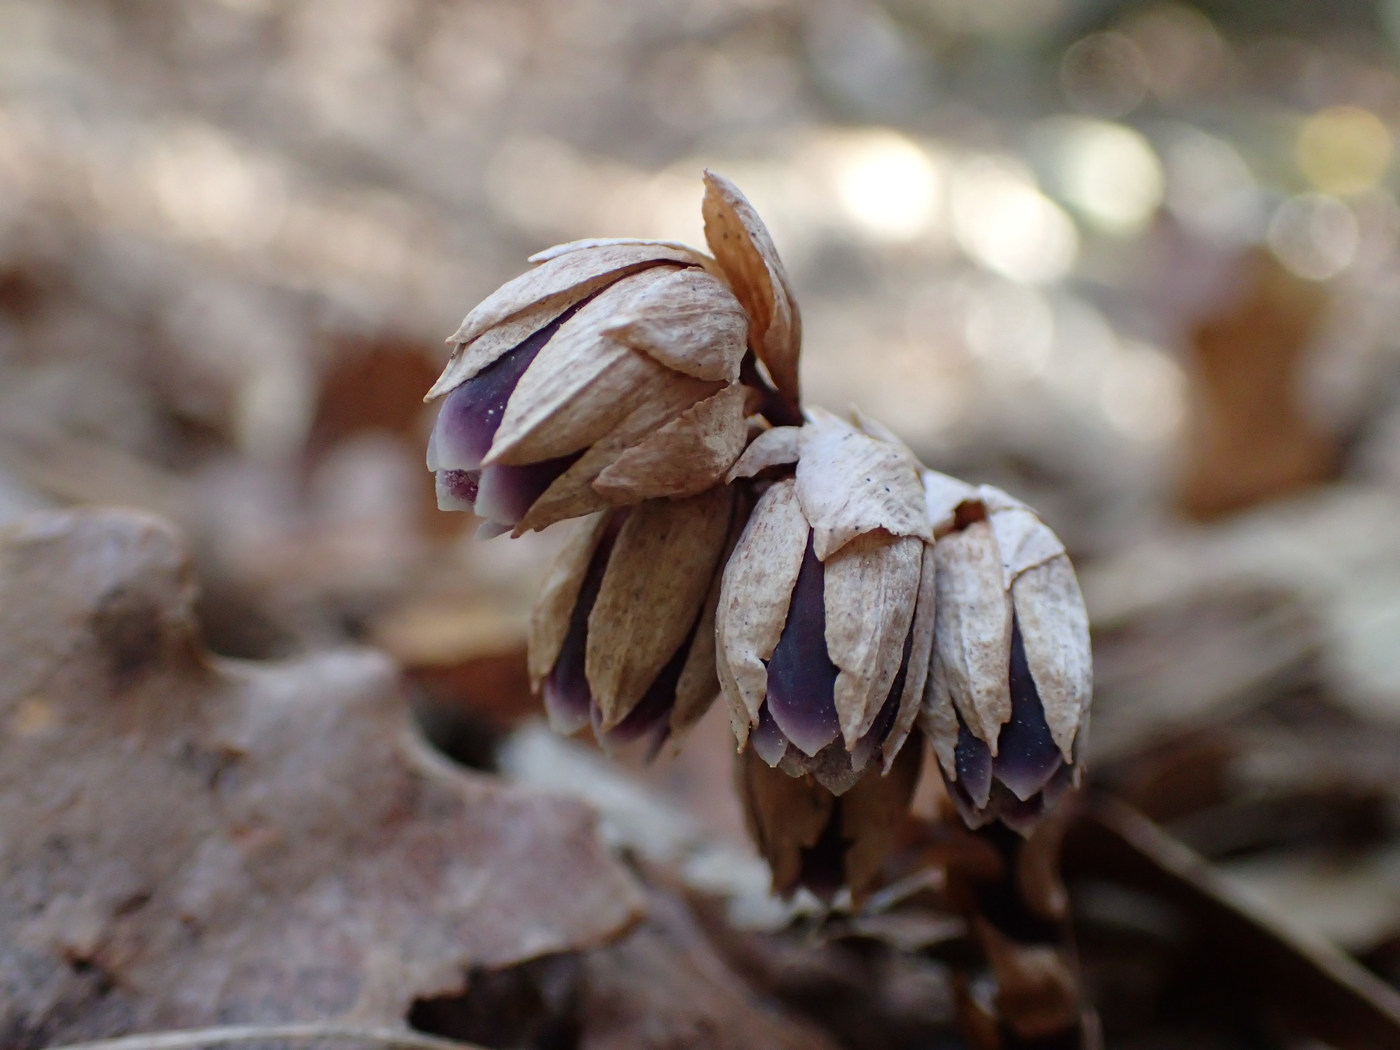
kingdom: Plantae
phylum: Tracheophyta
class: Magnoliopsida
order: Ericales
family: Ericaceae
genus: Monotropsis
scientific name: Monotropsis odorata
